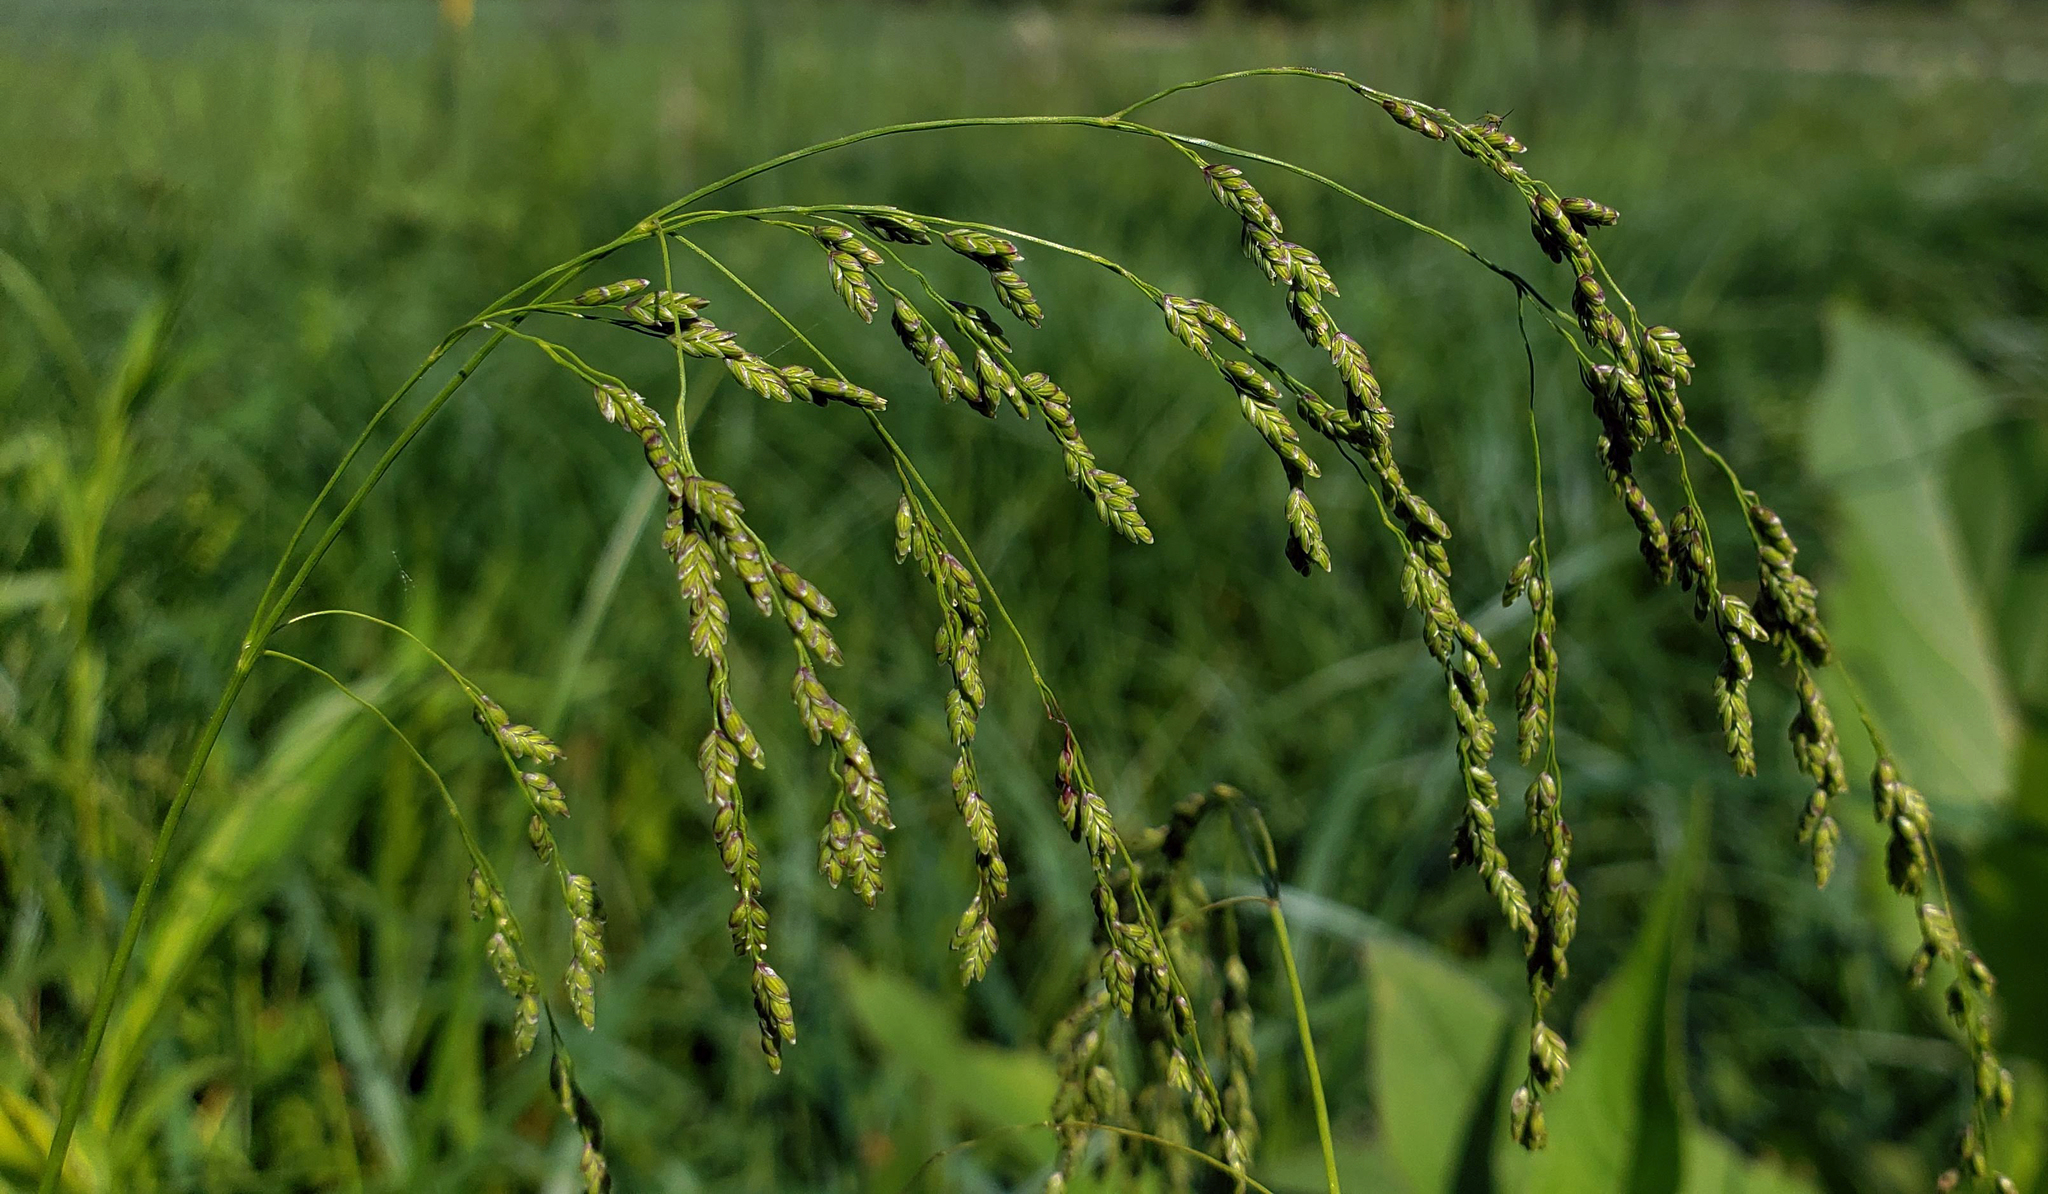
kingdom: Plantae
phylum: Tracheophyta
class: Liliopsida
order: Poales
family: Poaceae
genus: Glyceria
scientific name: Glyceria canadensis
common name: Canada mannagrass
